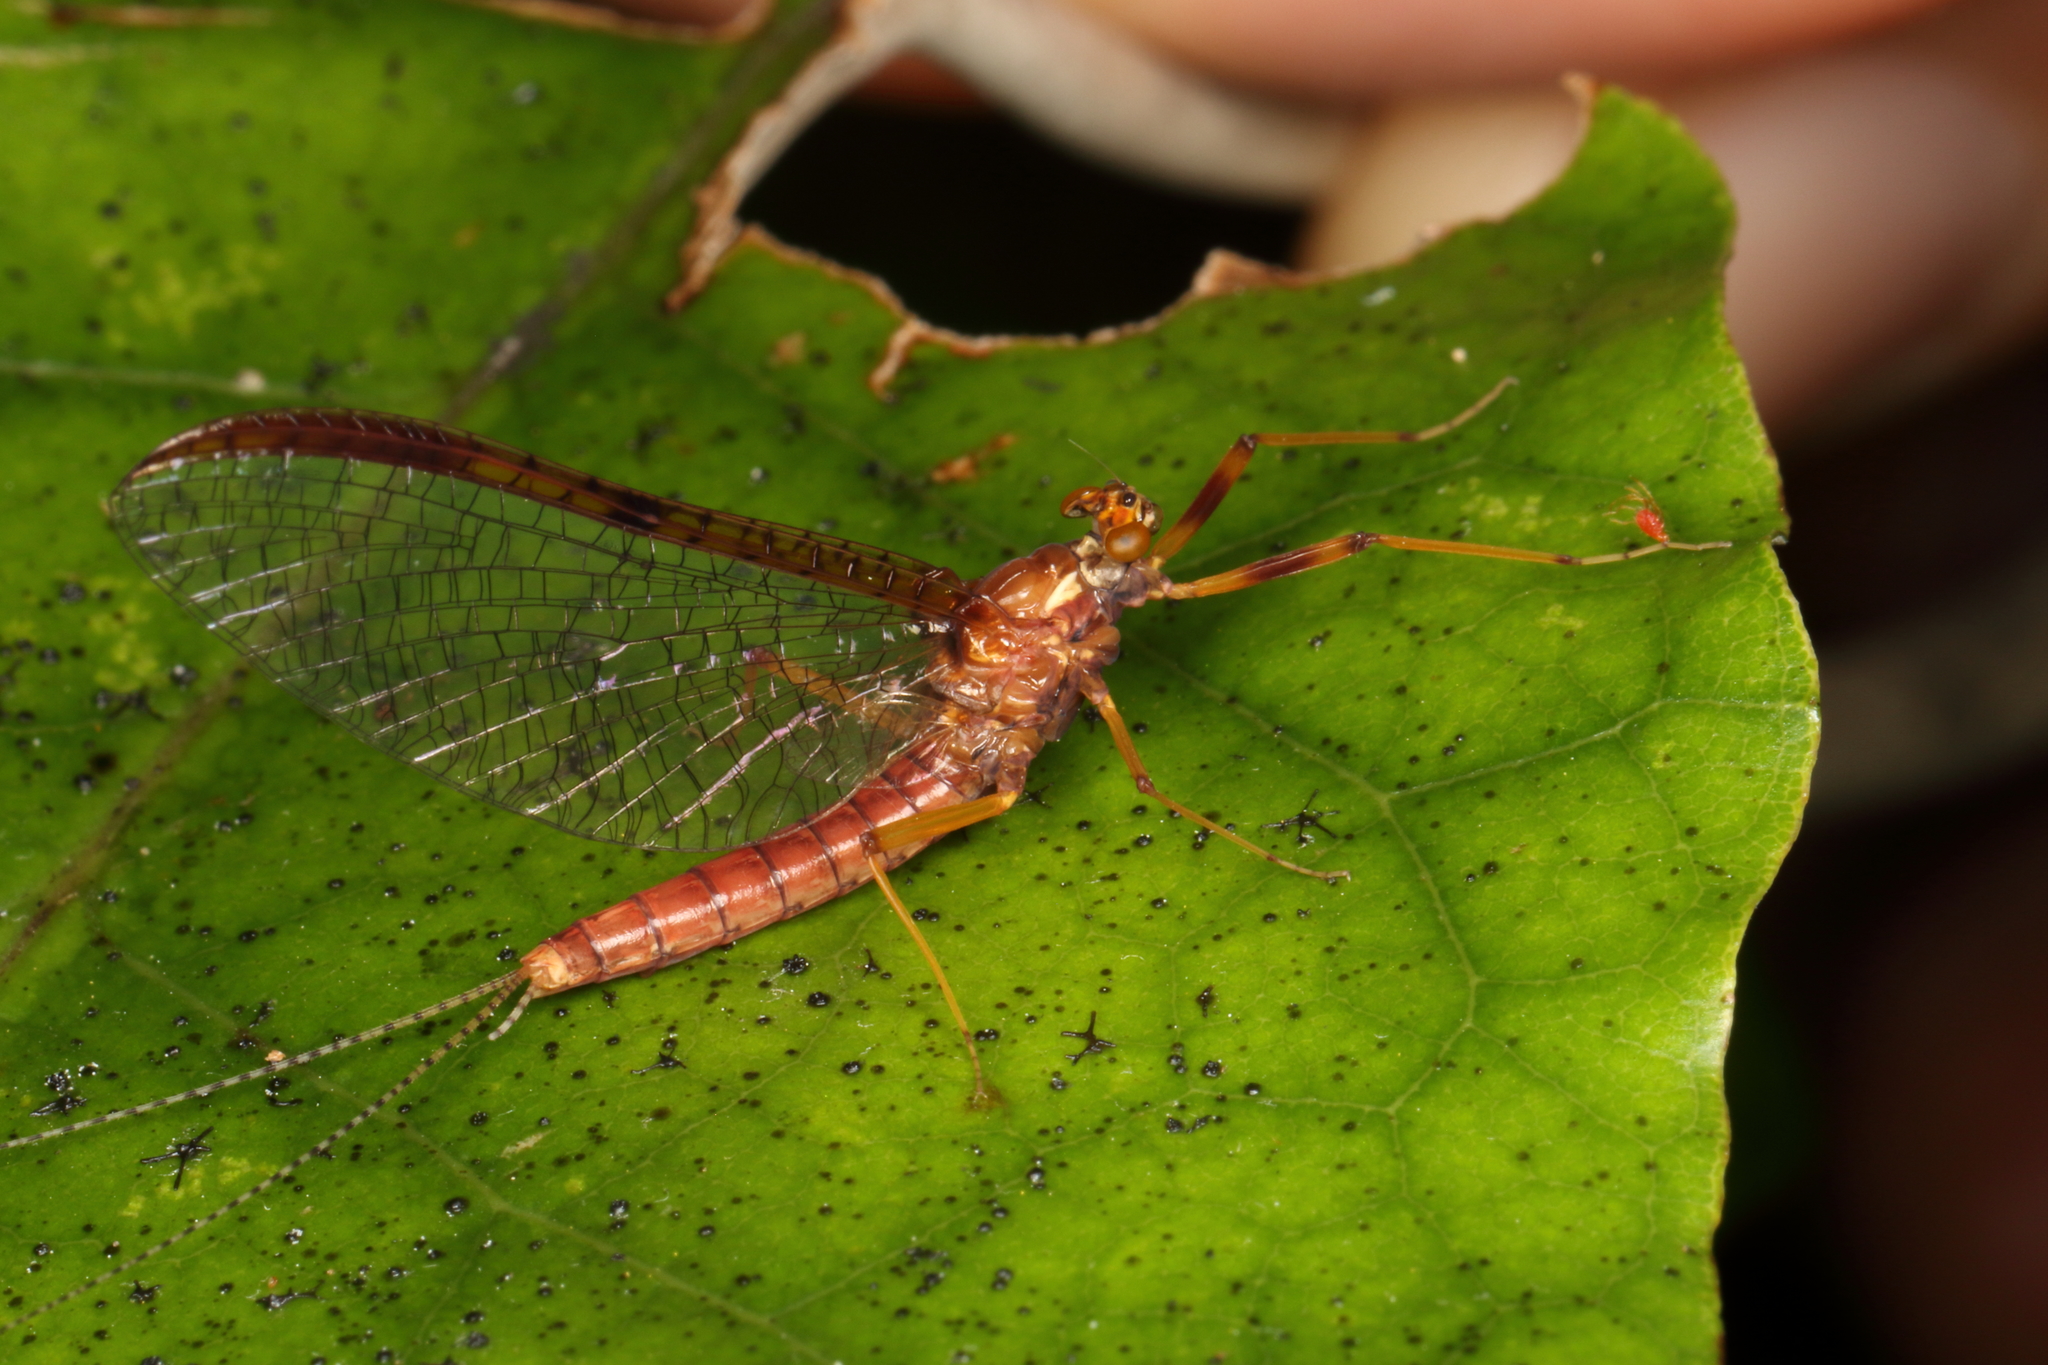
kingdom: Animalia
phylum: Arthropoda
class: Insecta
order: Ephemeroptera
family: Leptophlebiidae
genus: Zephlebia
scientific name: Zephlebia borealis
